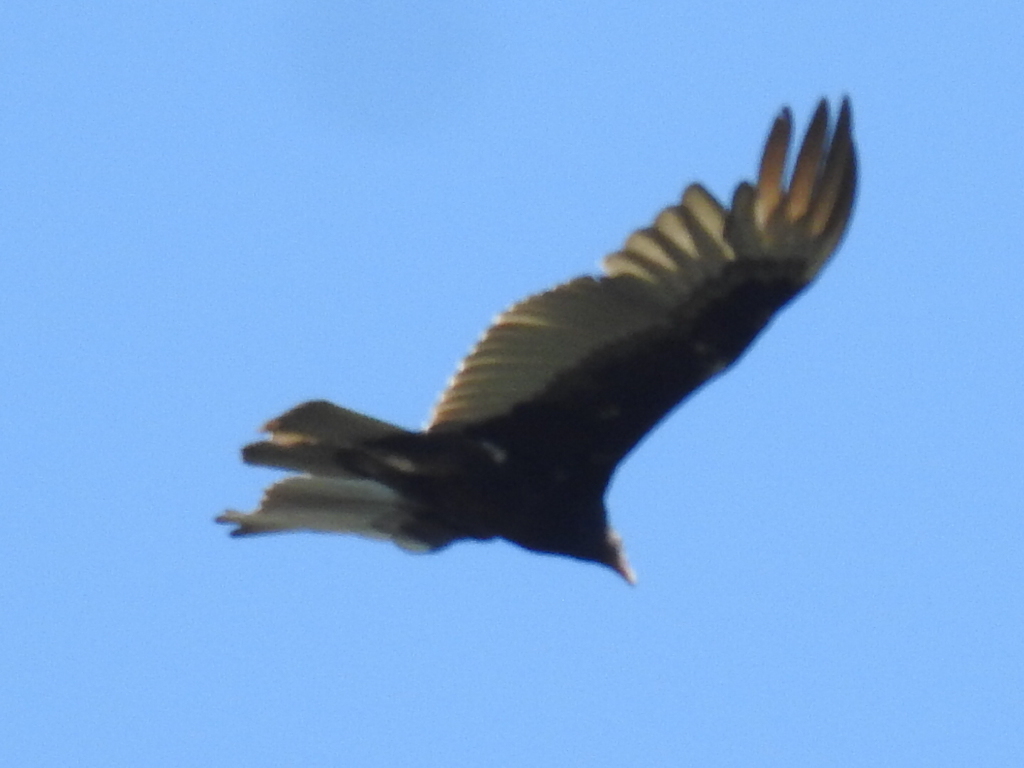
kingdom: Animalia
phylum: Chordata
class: Aves
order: Accipitriformes
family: Cathartidae
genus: Cathartes
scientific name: Cathartes aura
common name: Turkey vulture
